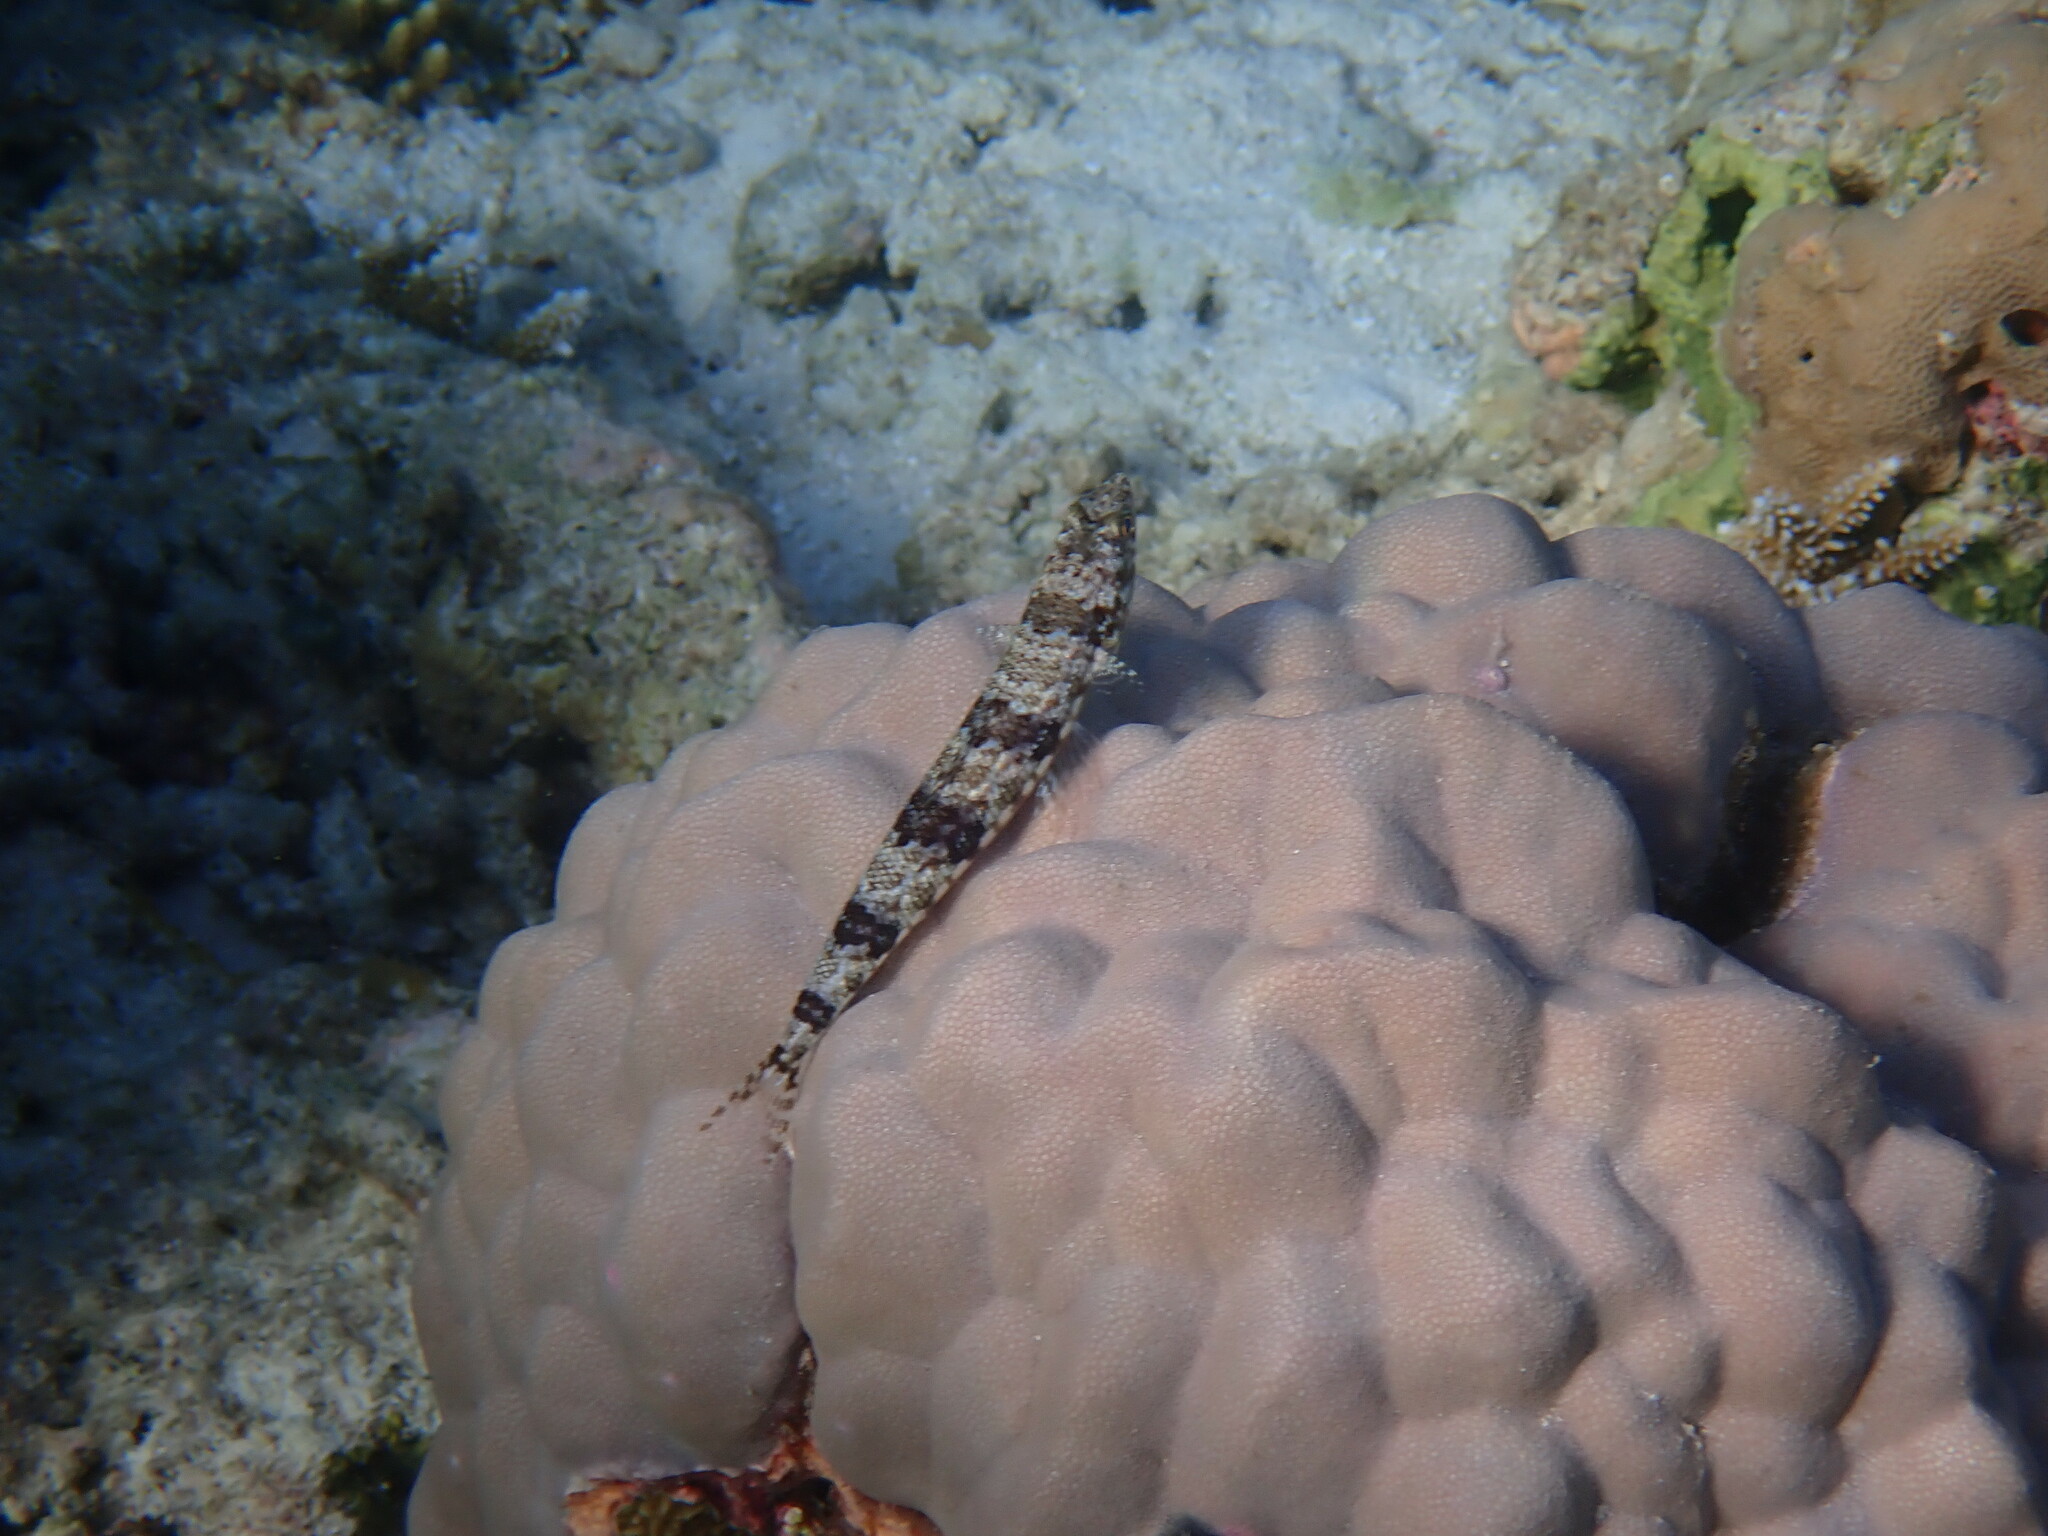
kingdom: Animalia
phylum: Chordata
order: Aulopiformes
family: Synodontidae
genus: Synodus
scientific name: Synodus variegatus
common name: Variegated lizardfish
